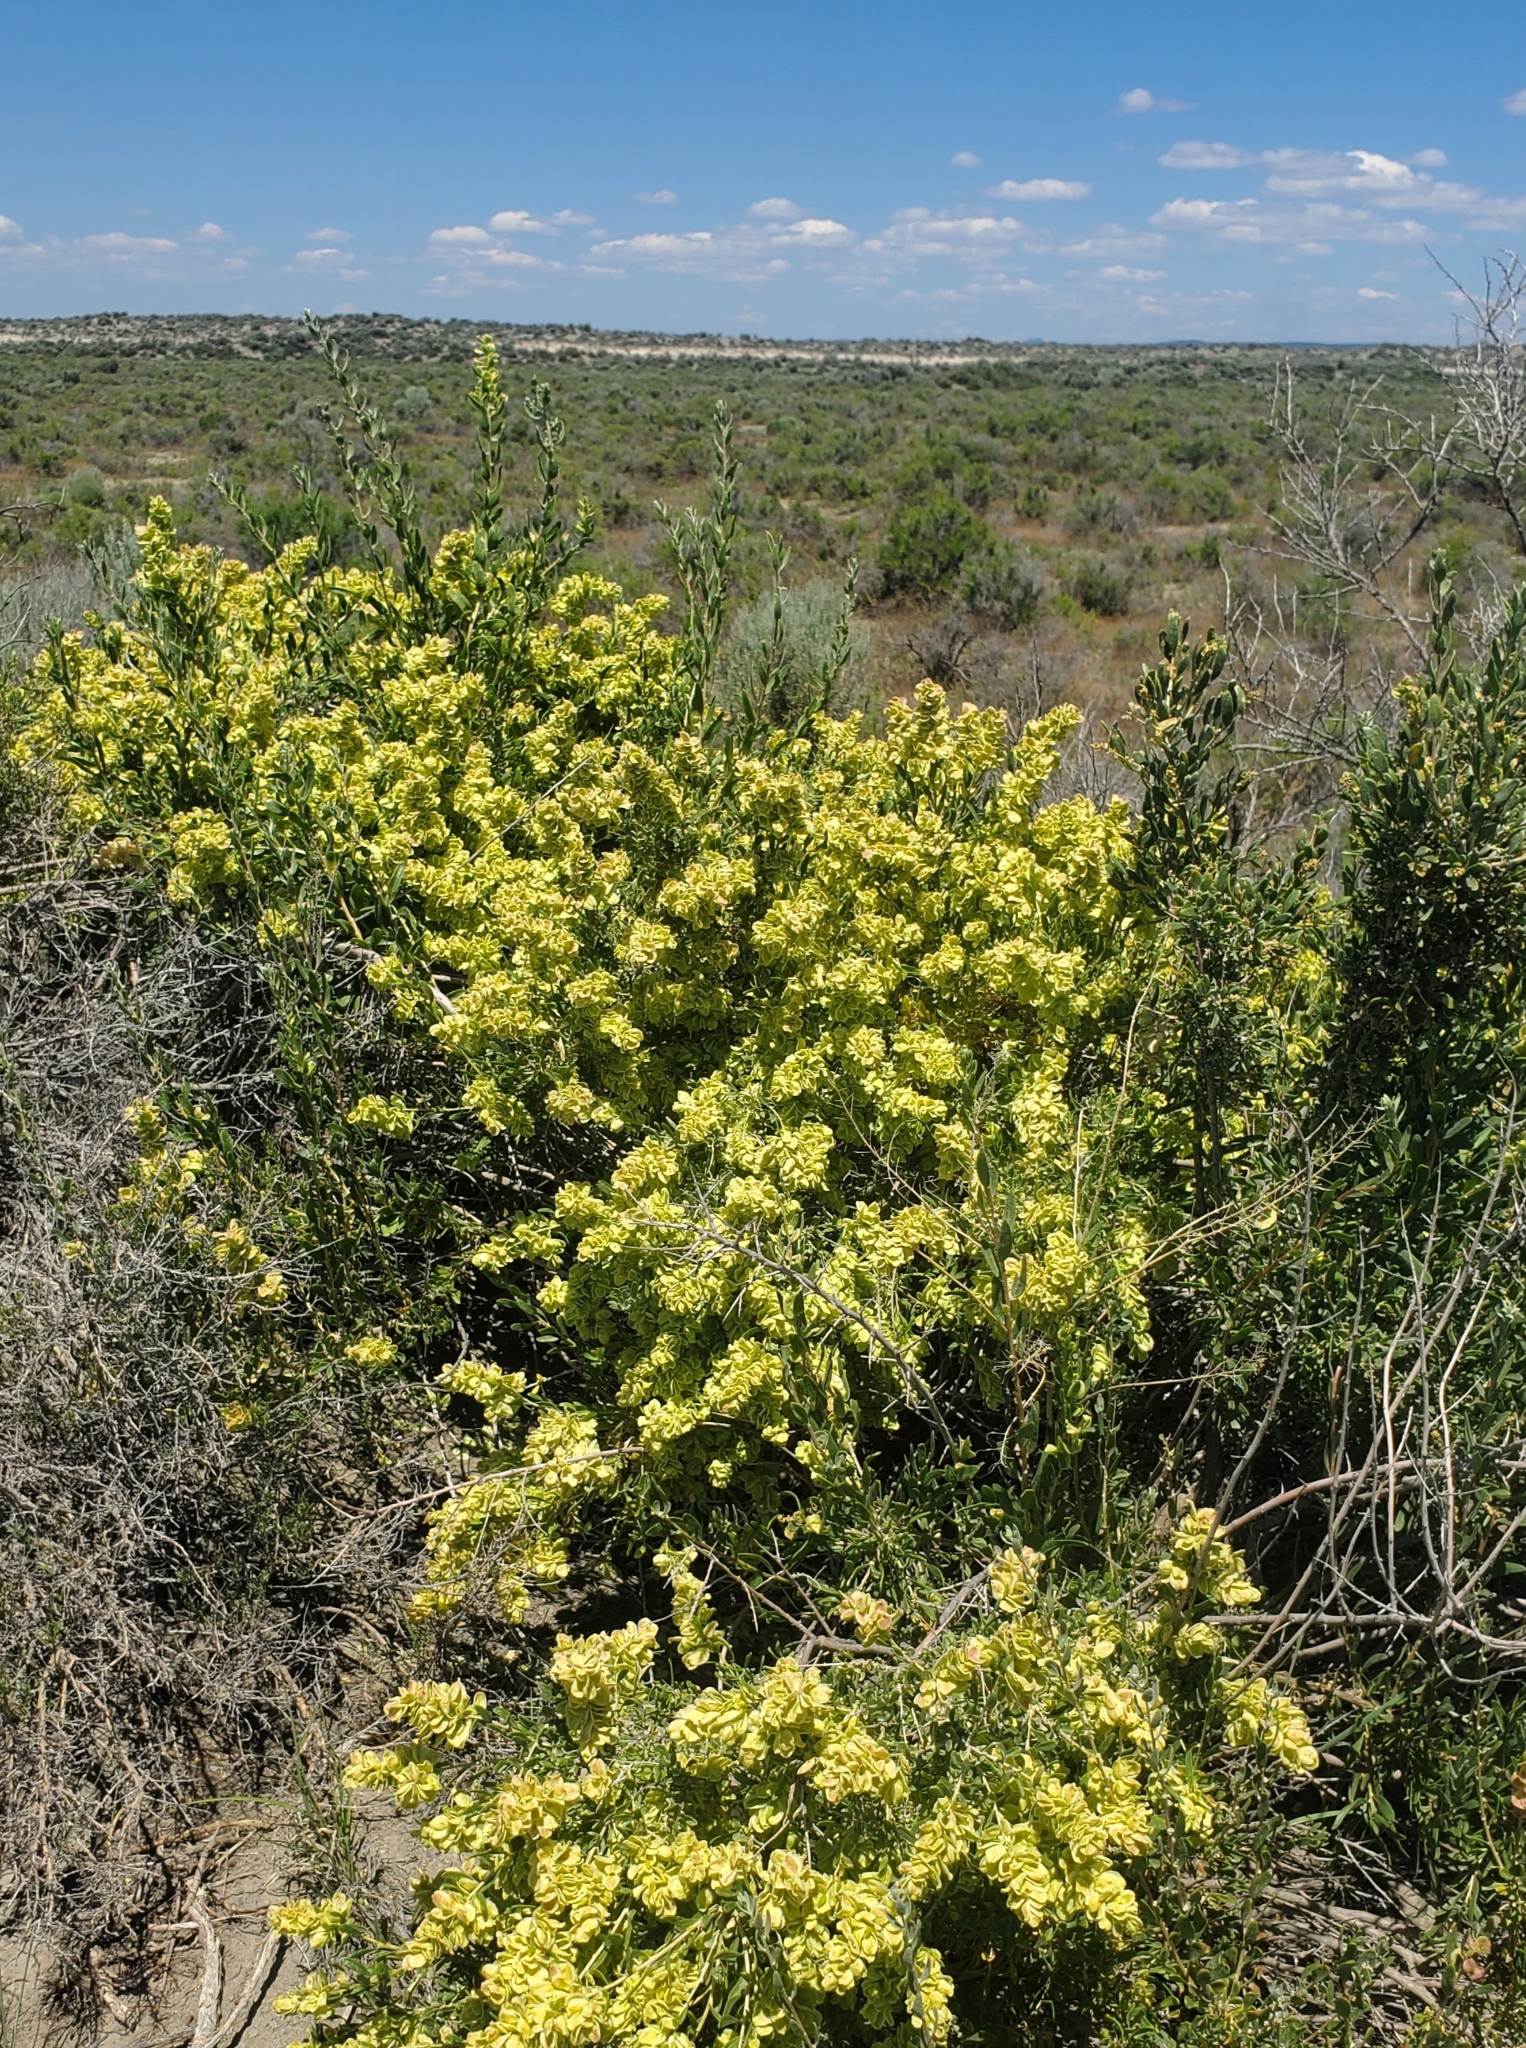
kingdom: Plantae
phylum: Tracheophyta
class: Magnoliopsida
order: Caryophyllales
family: Amaranthaceae
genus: Grayia
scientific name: Grayia spinosa
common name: Spiny hopsage
